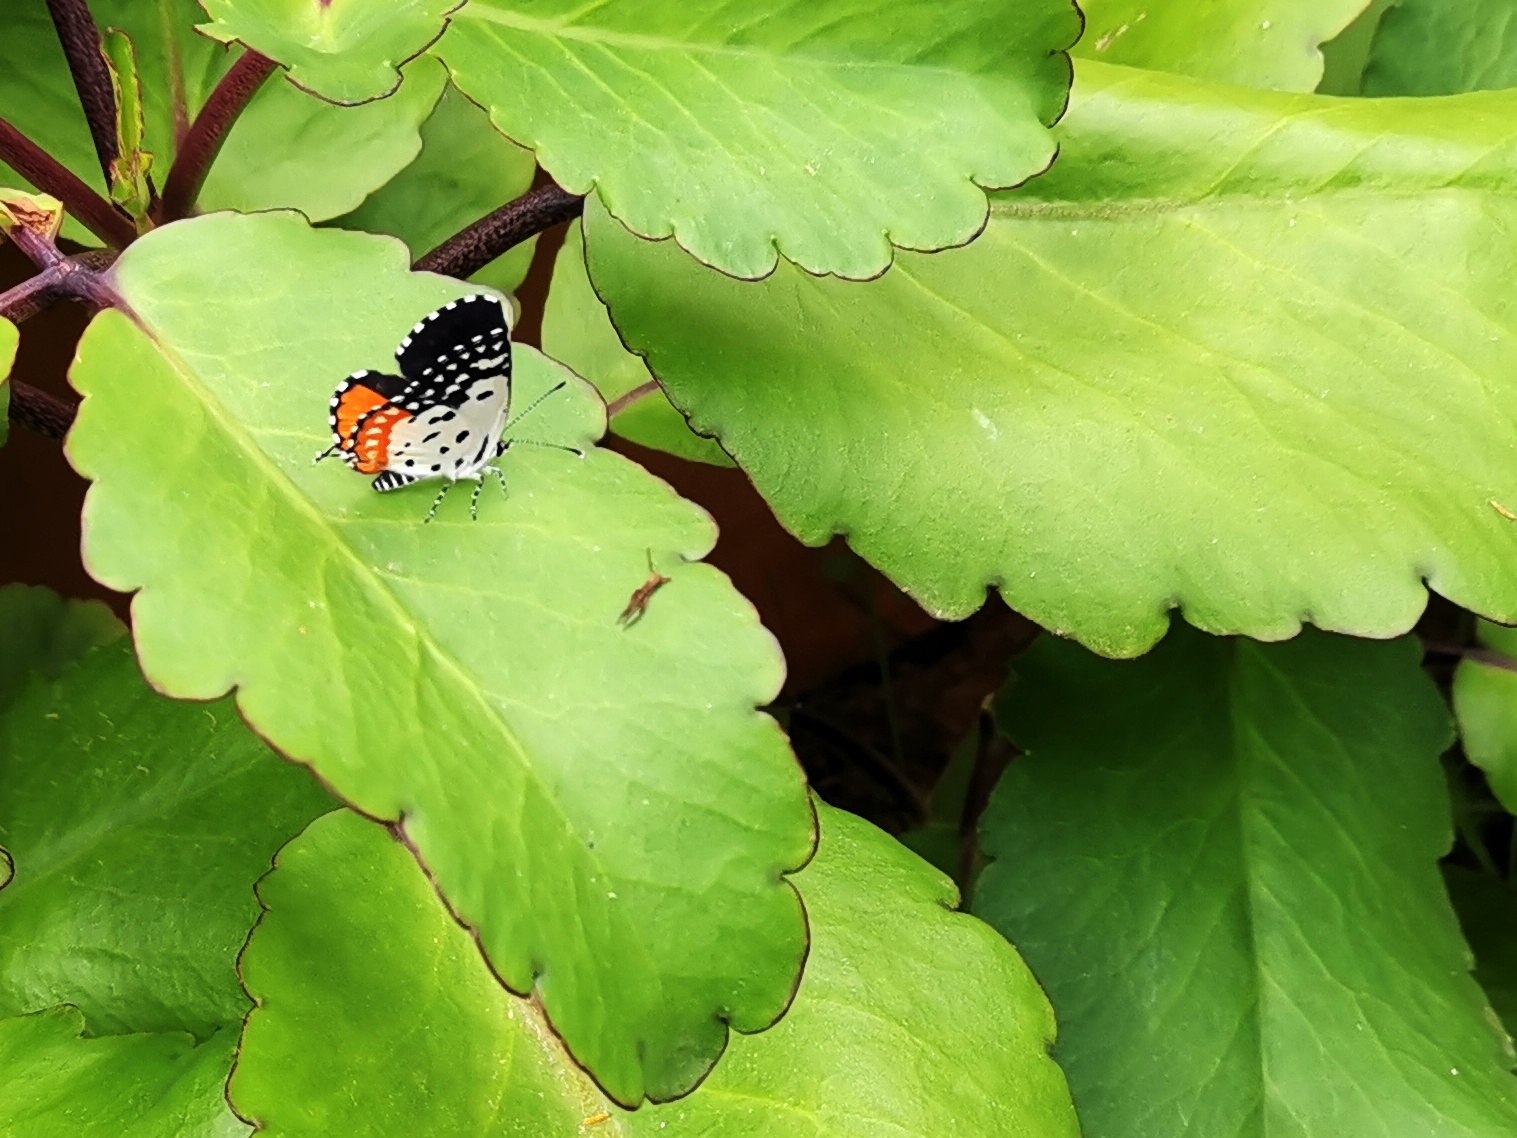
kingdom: Animalia
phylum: Arthropoda
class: Insecta
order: Lepidoptera
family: Lycaenidae
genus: Talicada
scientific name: Talicada nyseus
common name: Red pierrot
